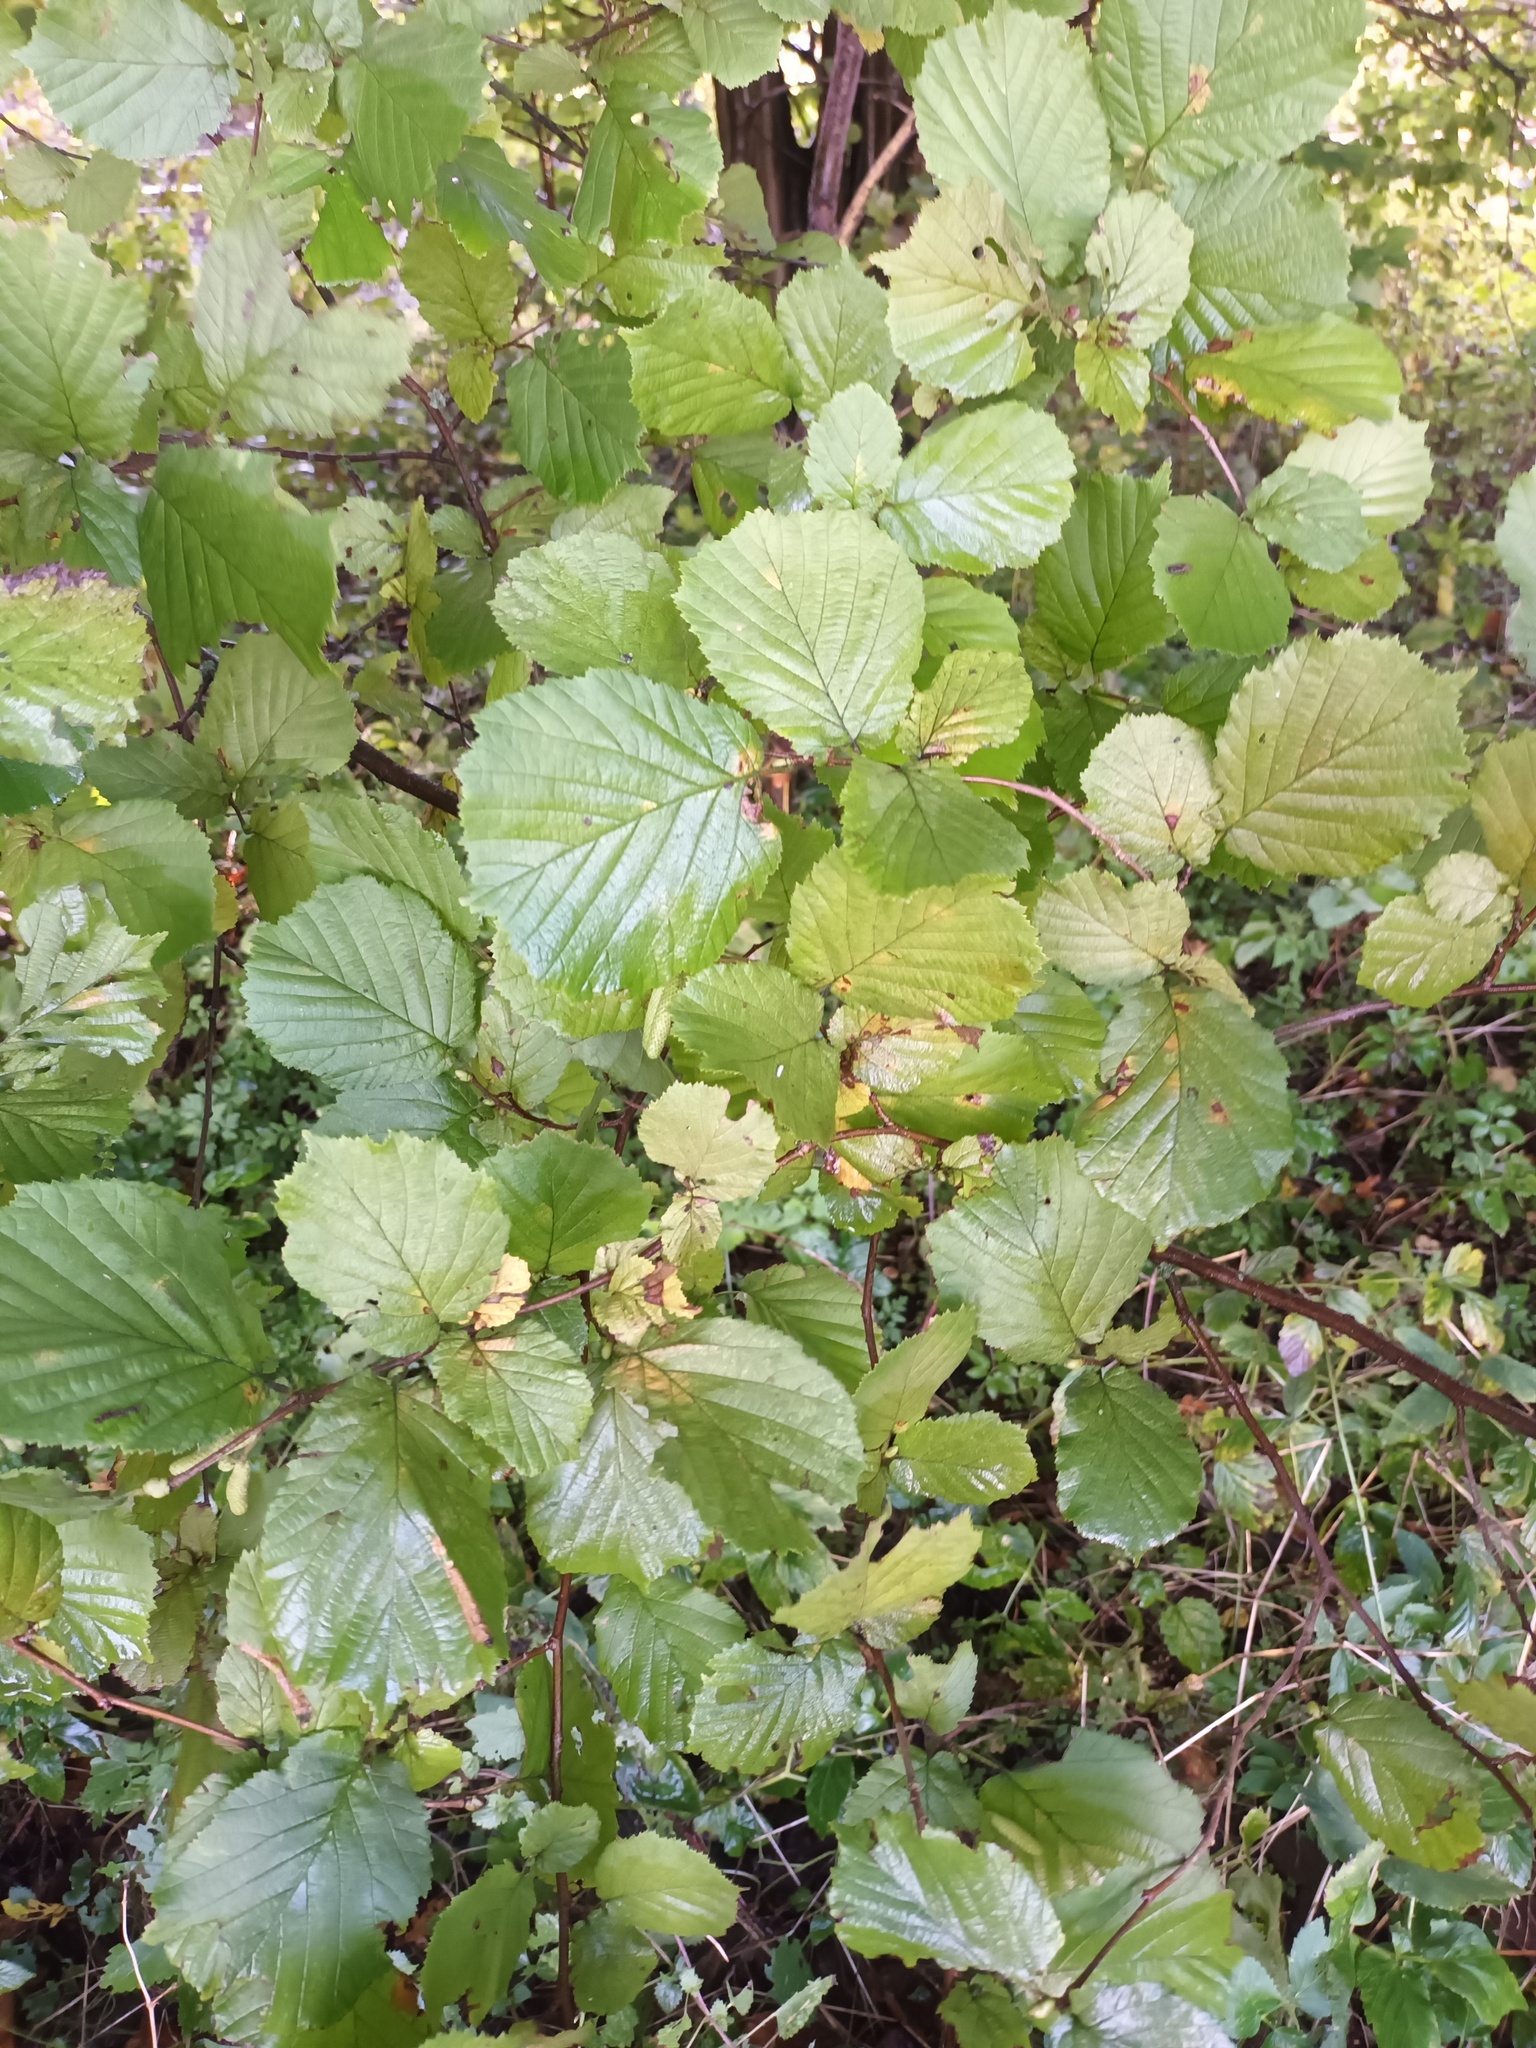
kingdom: Plantae
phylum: Tracheophyta
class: Magnoliopsida
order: Fagales
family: Betulaceae
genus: Corylus
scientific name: Corylus avellana
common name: European hazel
